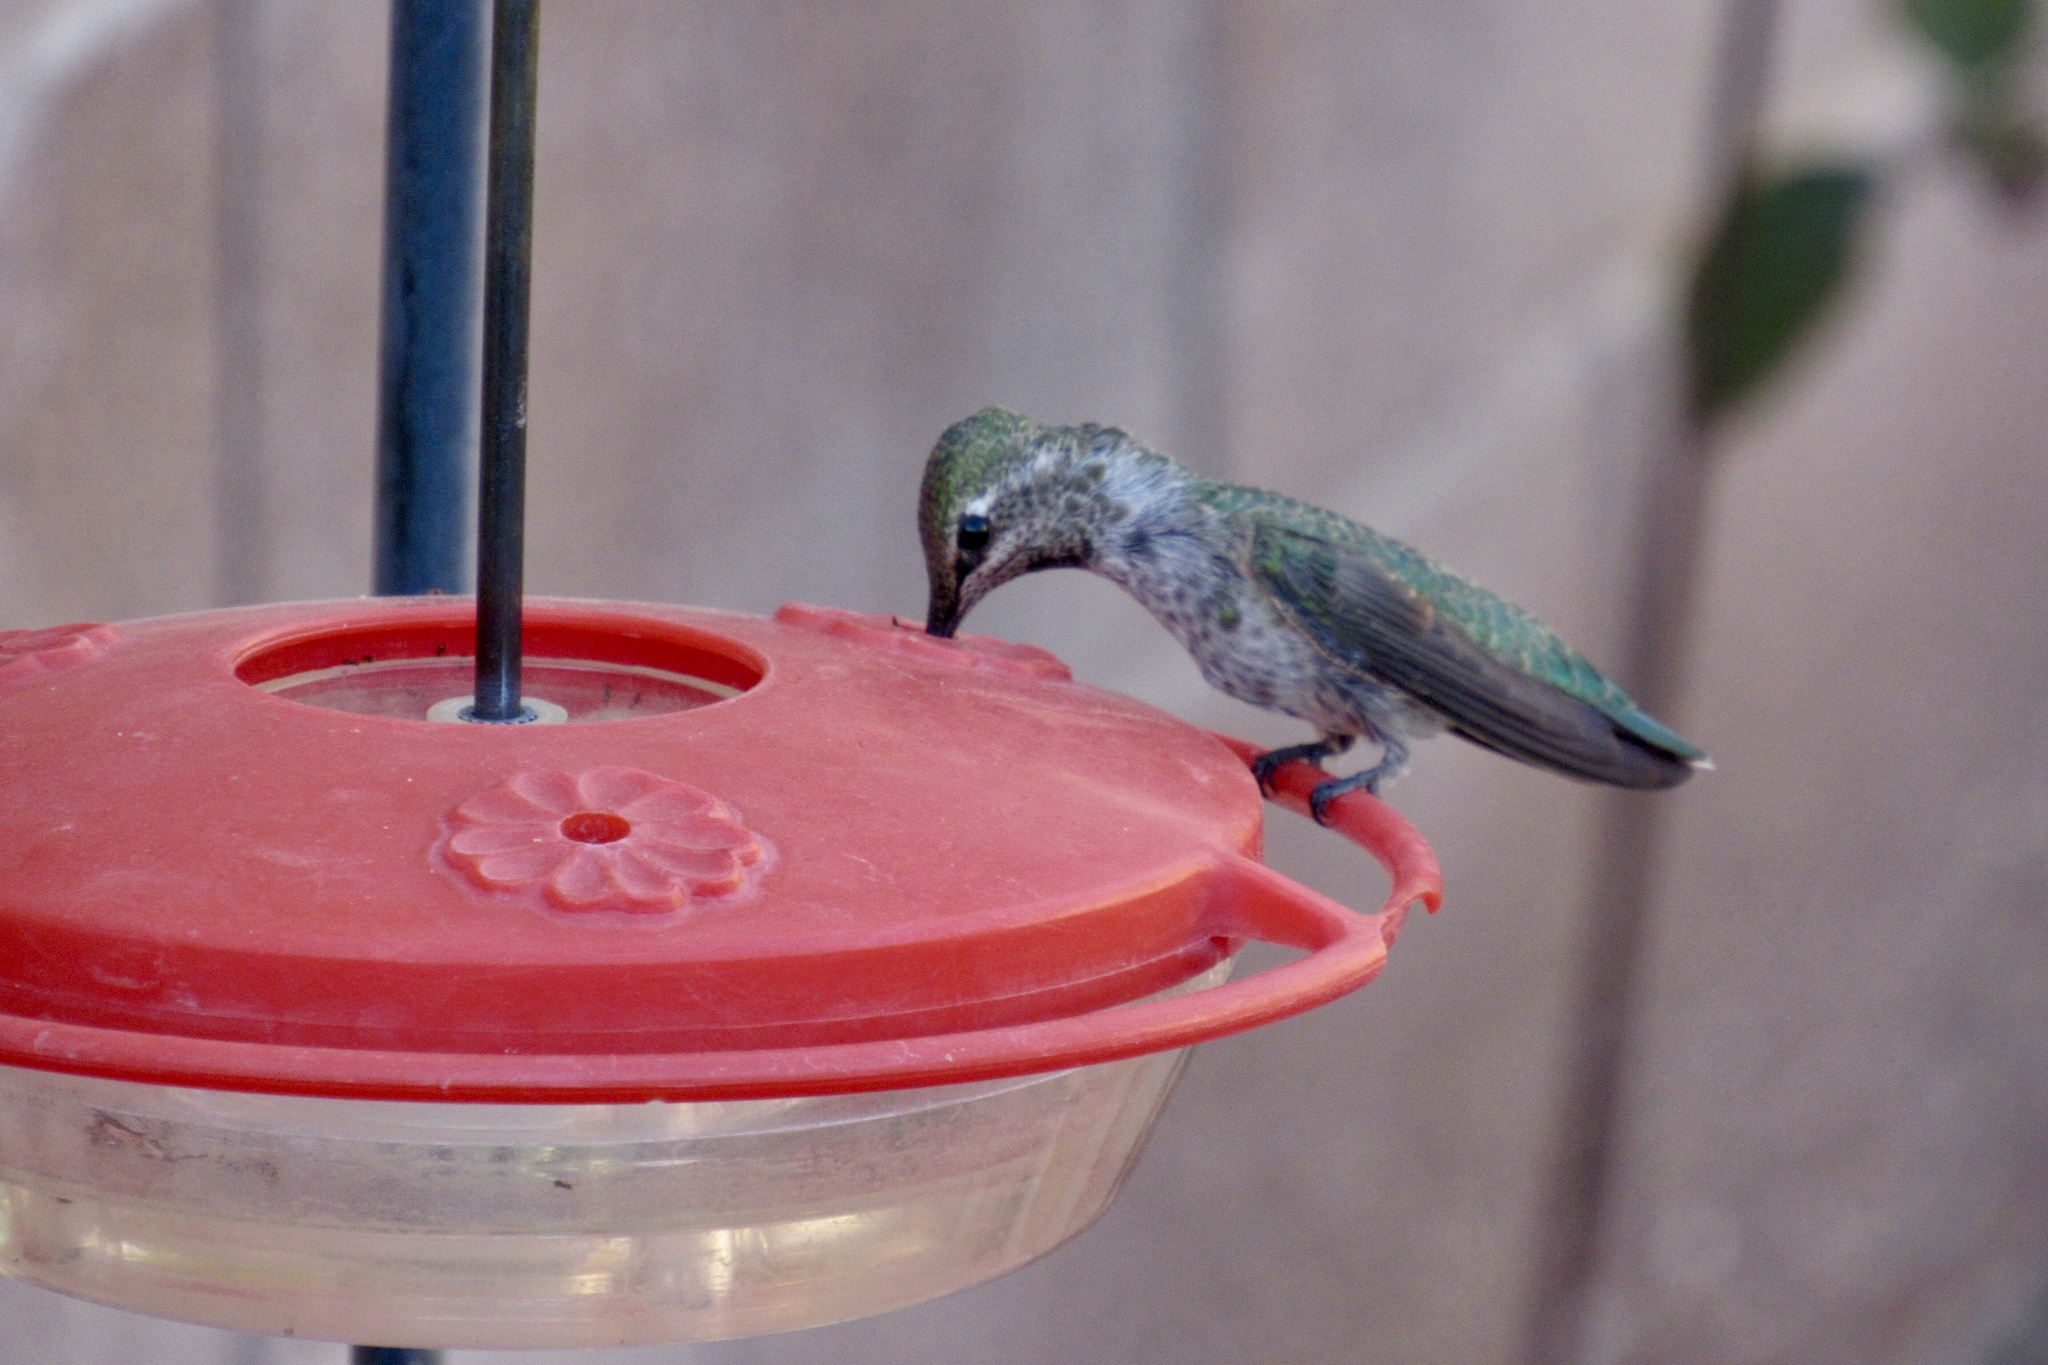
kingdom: Animalia
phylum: Chordata
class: Aves
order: Apodiformes
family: Trochilidae
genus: Calypte
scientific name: Calypte anna
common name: Anna's hummingbird
